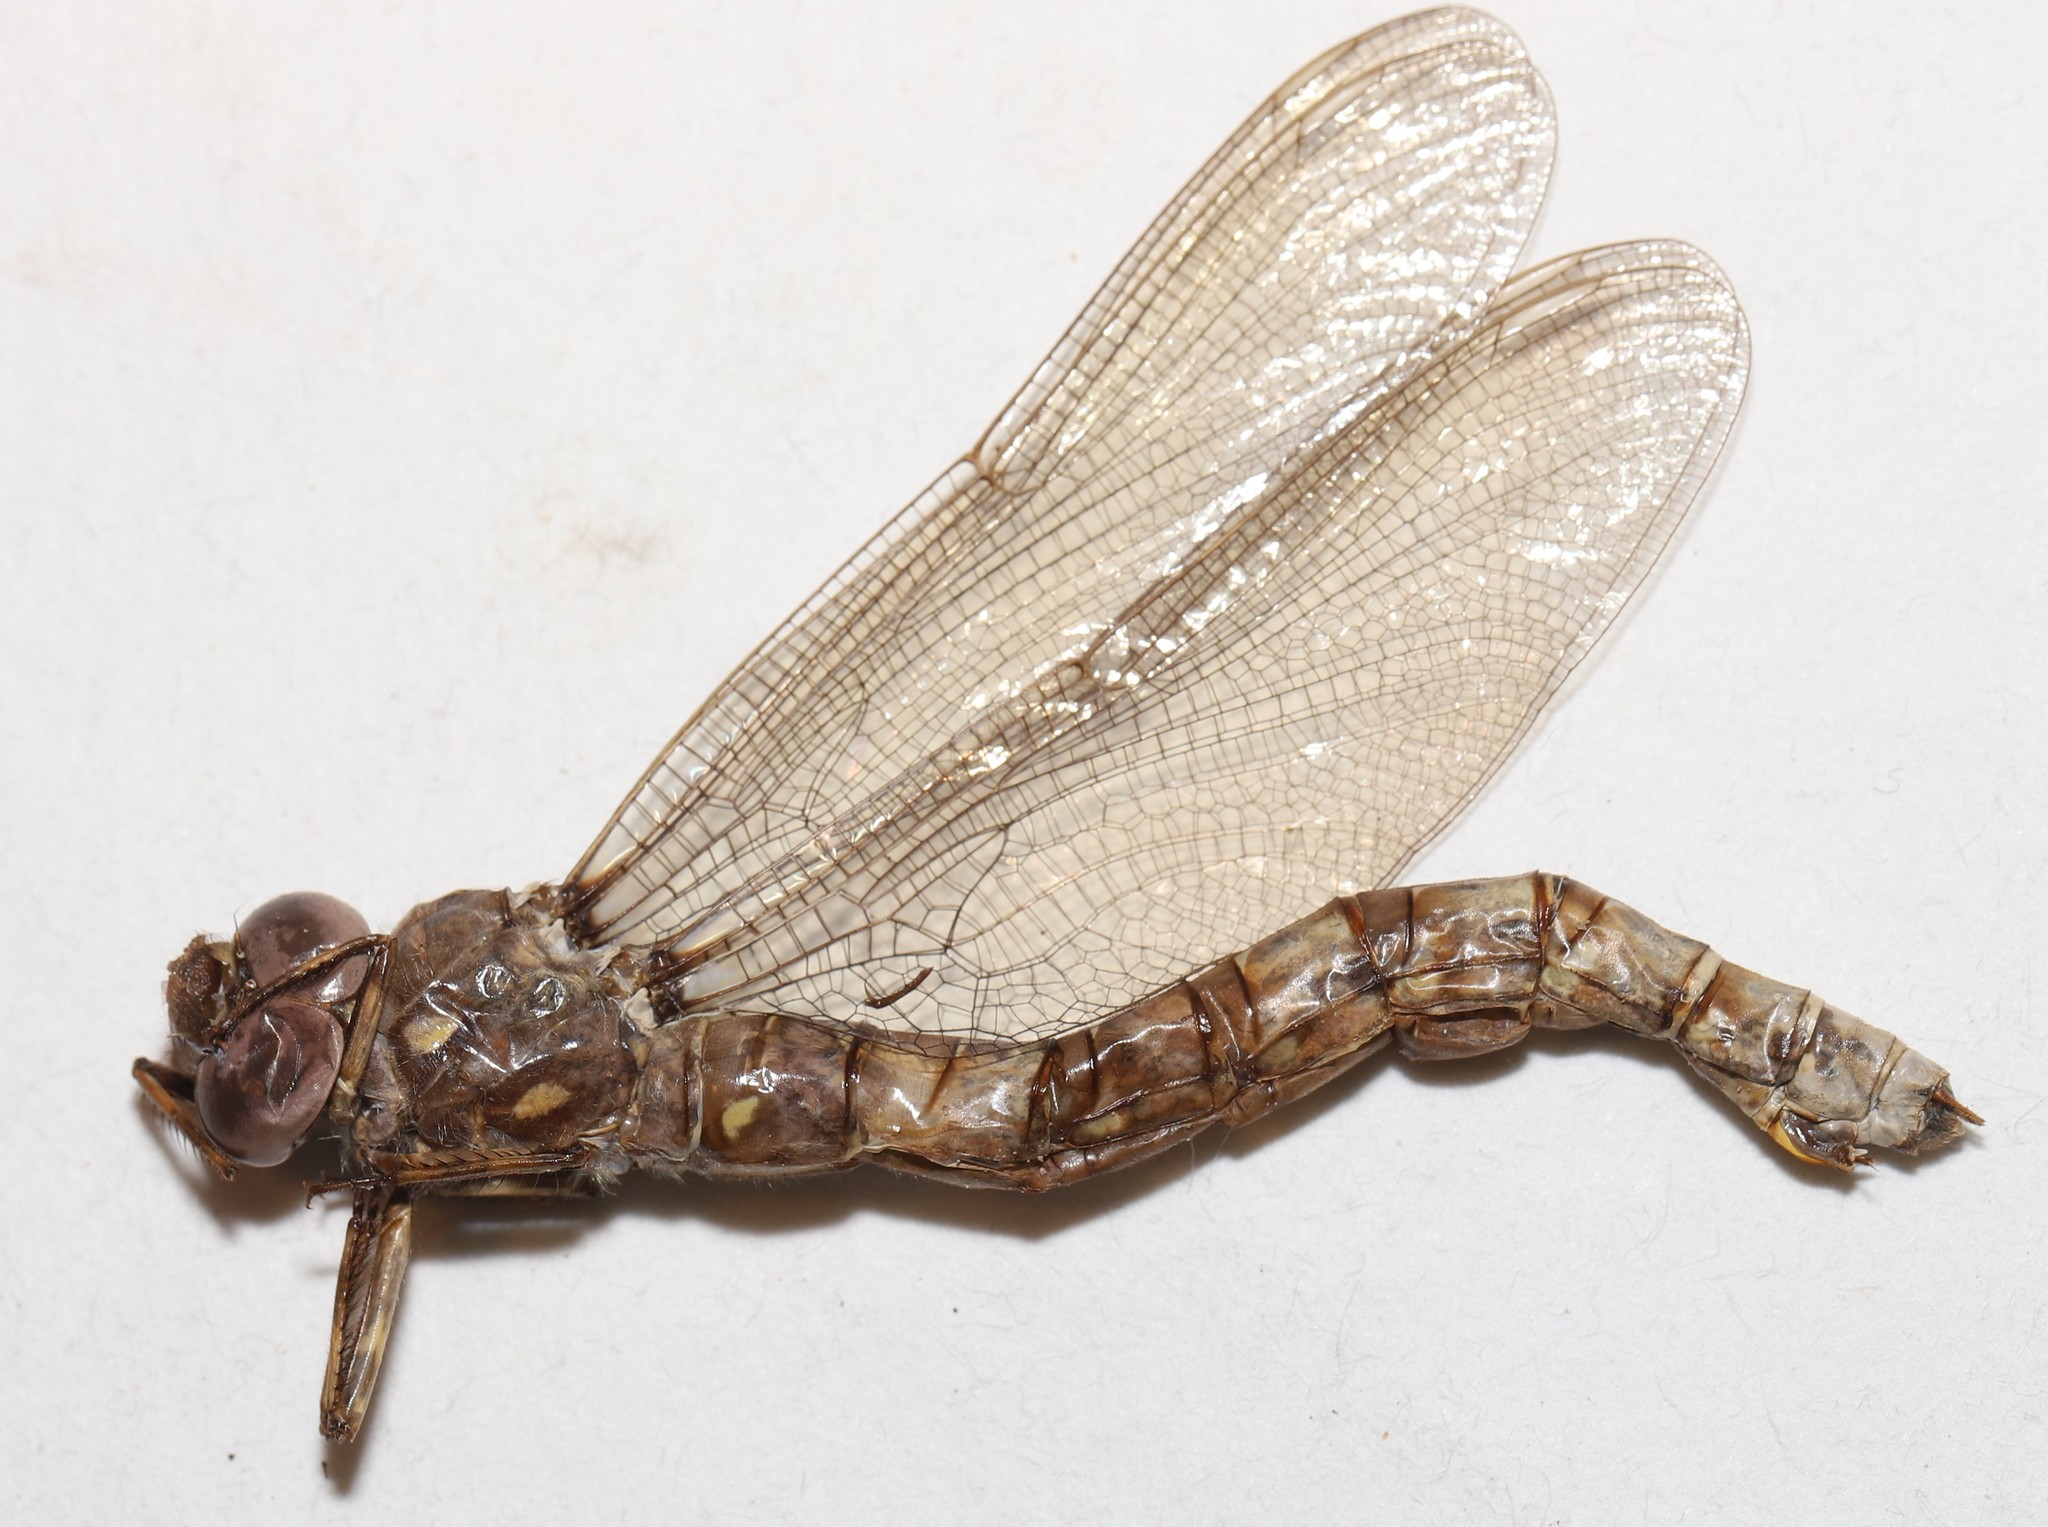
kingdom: Animalia
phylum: Arthropoda
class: Insecta
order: Odonata
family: Aeshnidae
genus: Boyeria
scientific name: Boyeria grafiana
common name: Ocellated darner
